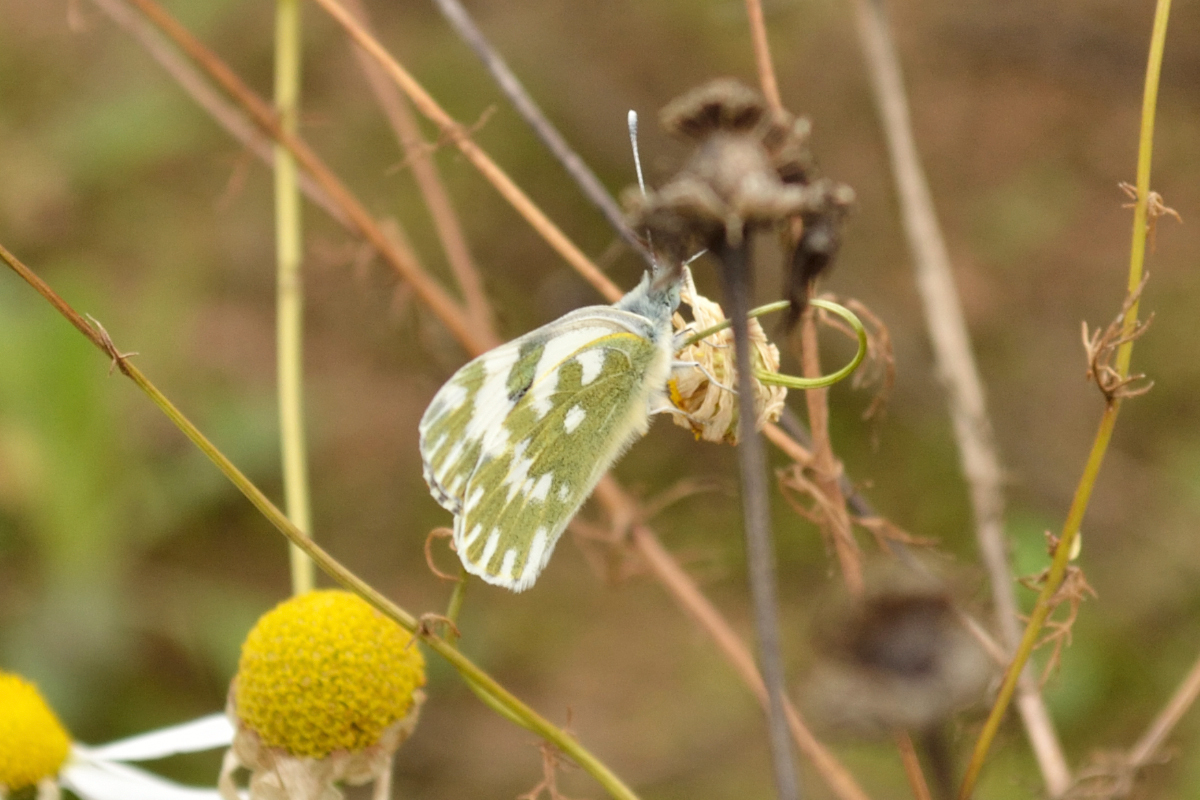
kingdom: Animalia
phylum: Arthropoda
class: Insecta
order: Lepidoptera
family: Pieridae
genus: Pontia
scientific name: Pontia edusa
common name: Eastern bath white
